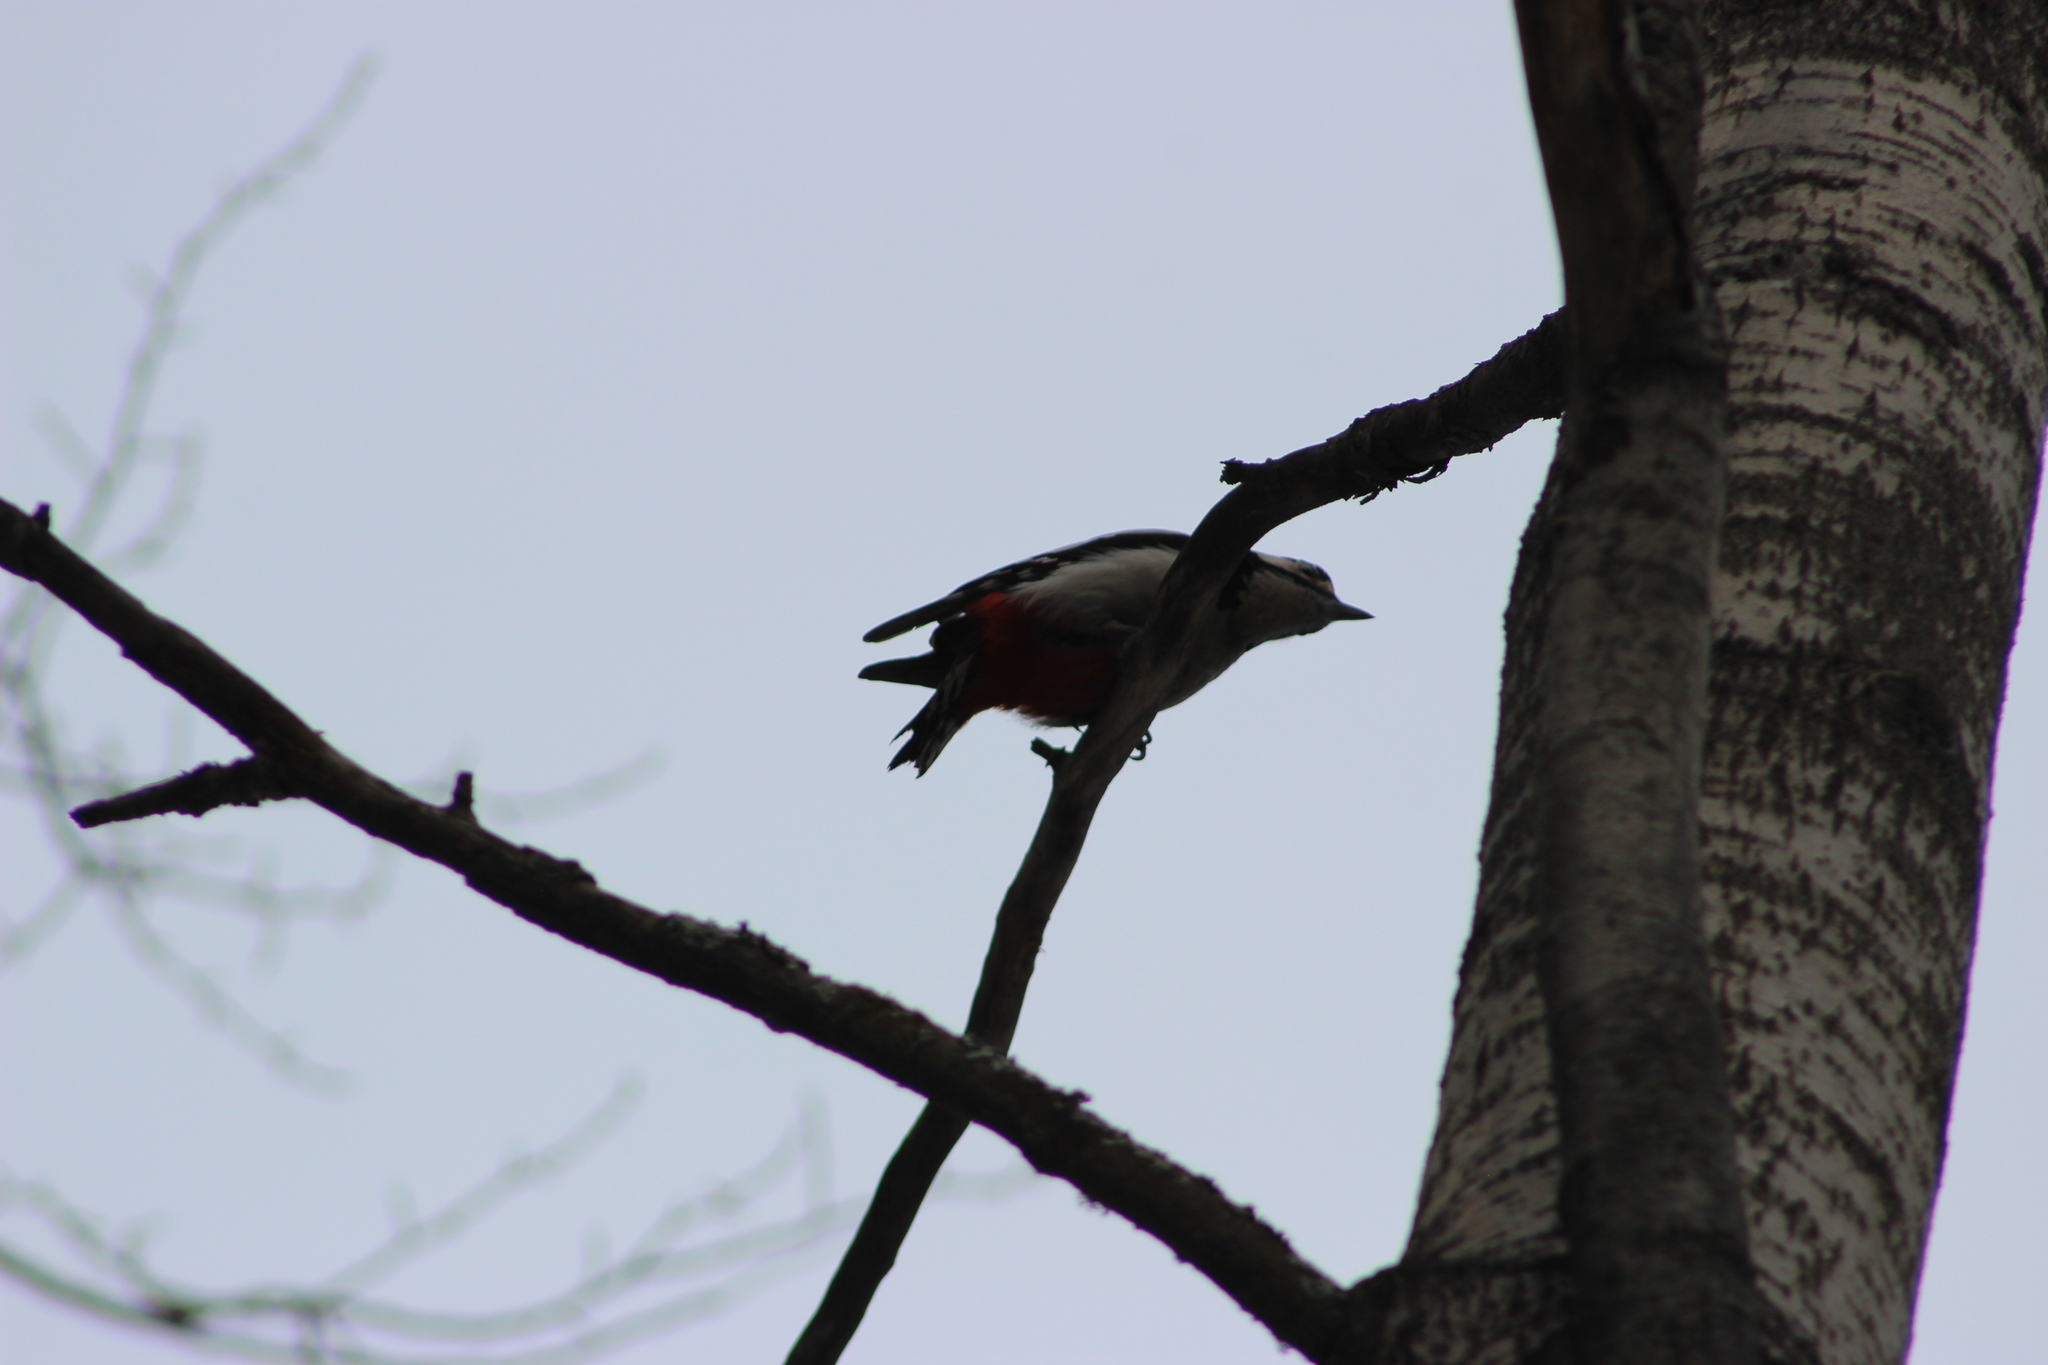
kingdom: Animalia
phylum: Chordata
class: Aves
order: Piciformes
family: Picidae
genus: Dendrocopos
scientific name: Dendrocopos major
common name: Great spotted woodpecker
